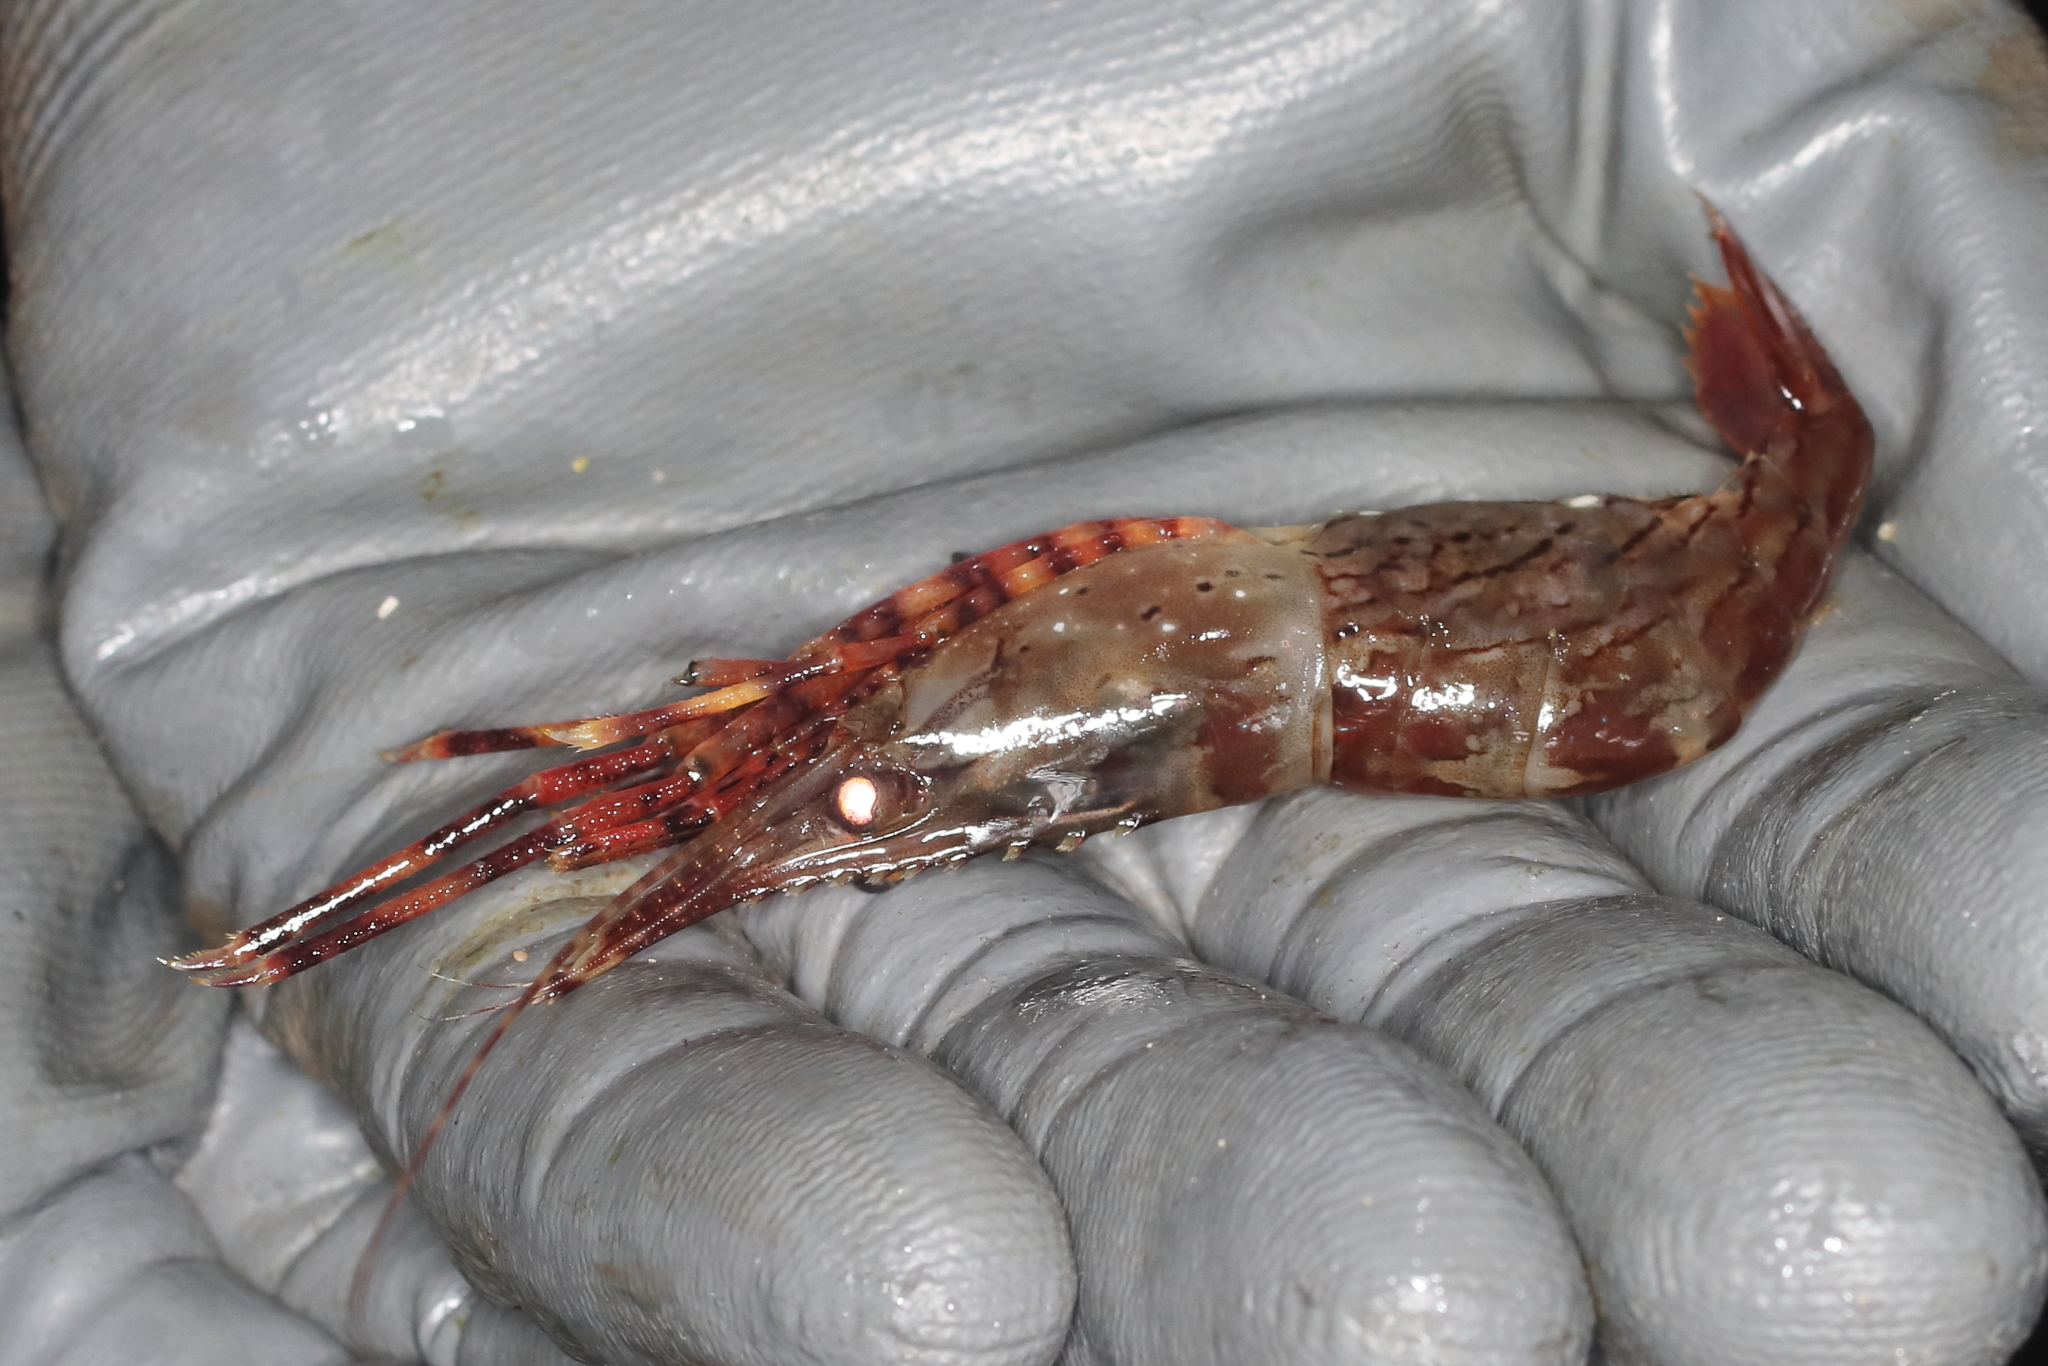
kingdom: Animalia
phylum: Arthropoda
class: Malacostraca
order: Decapoda
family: Pandalidae
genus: Pandalus
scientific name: Pandalus danae
